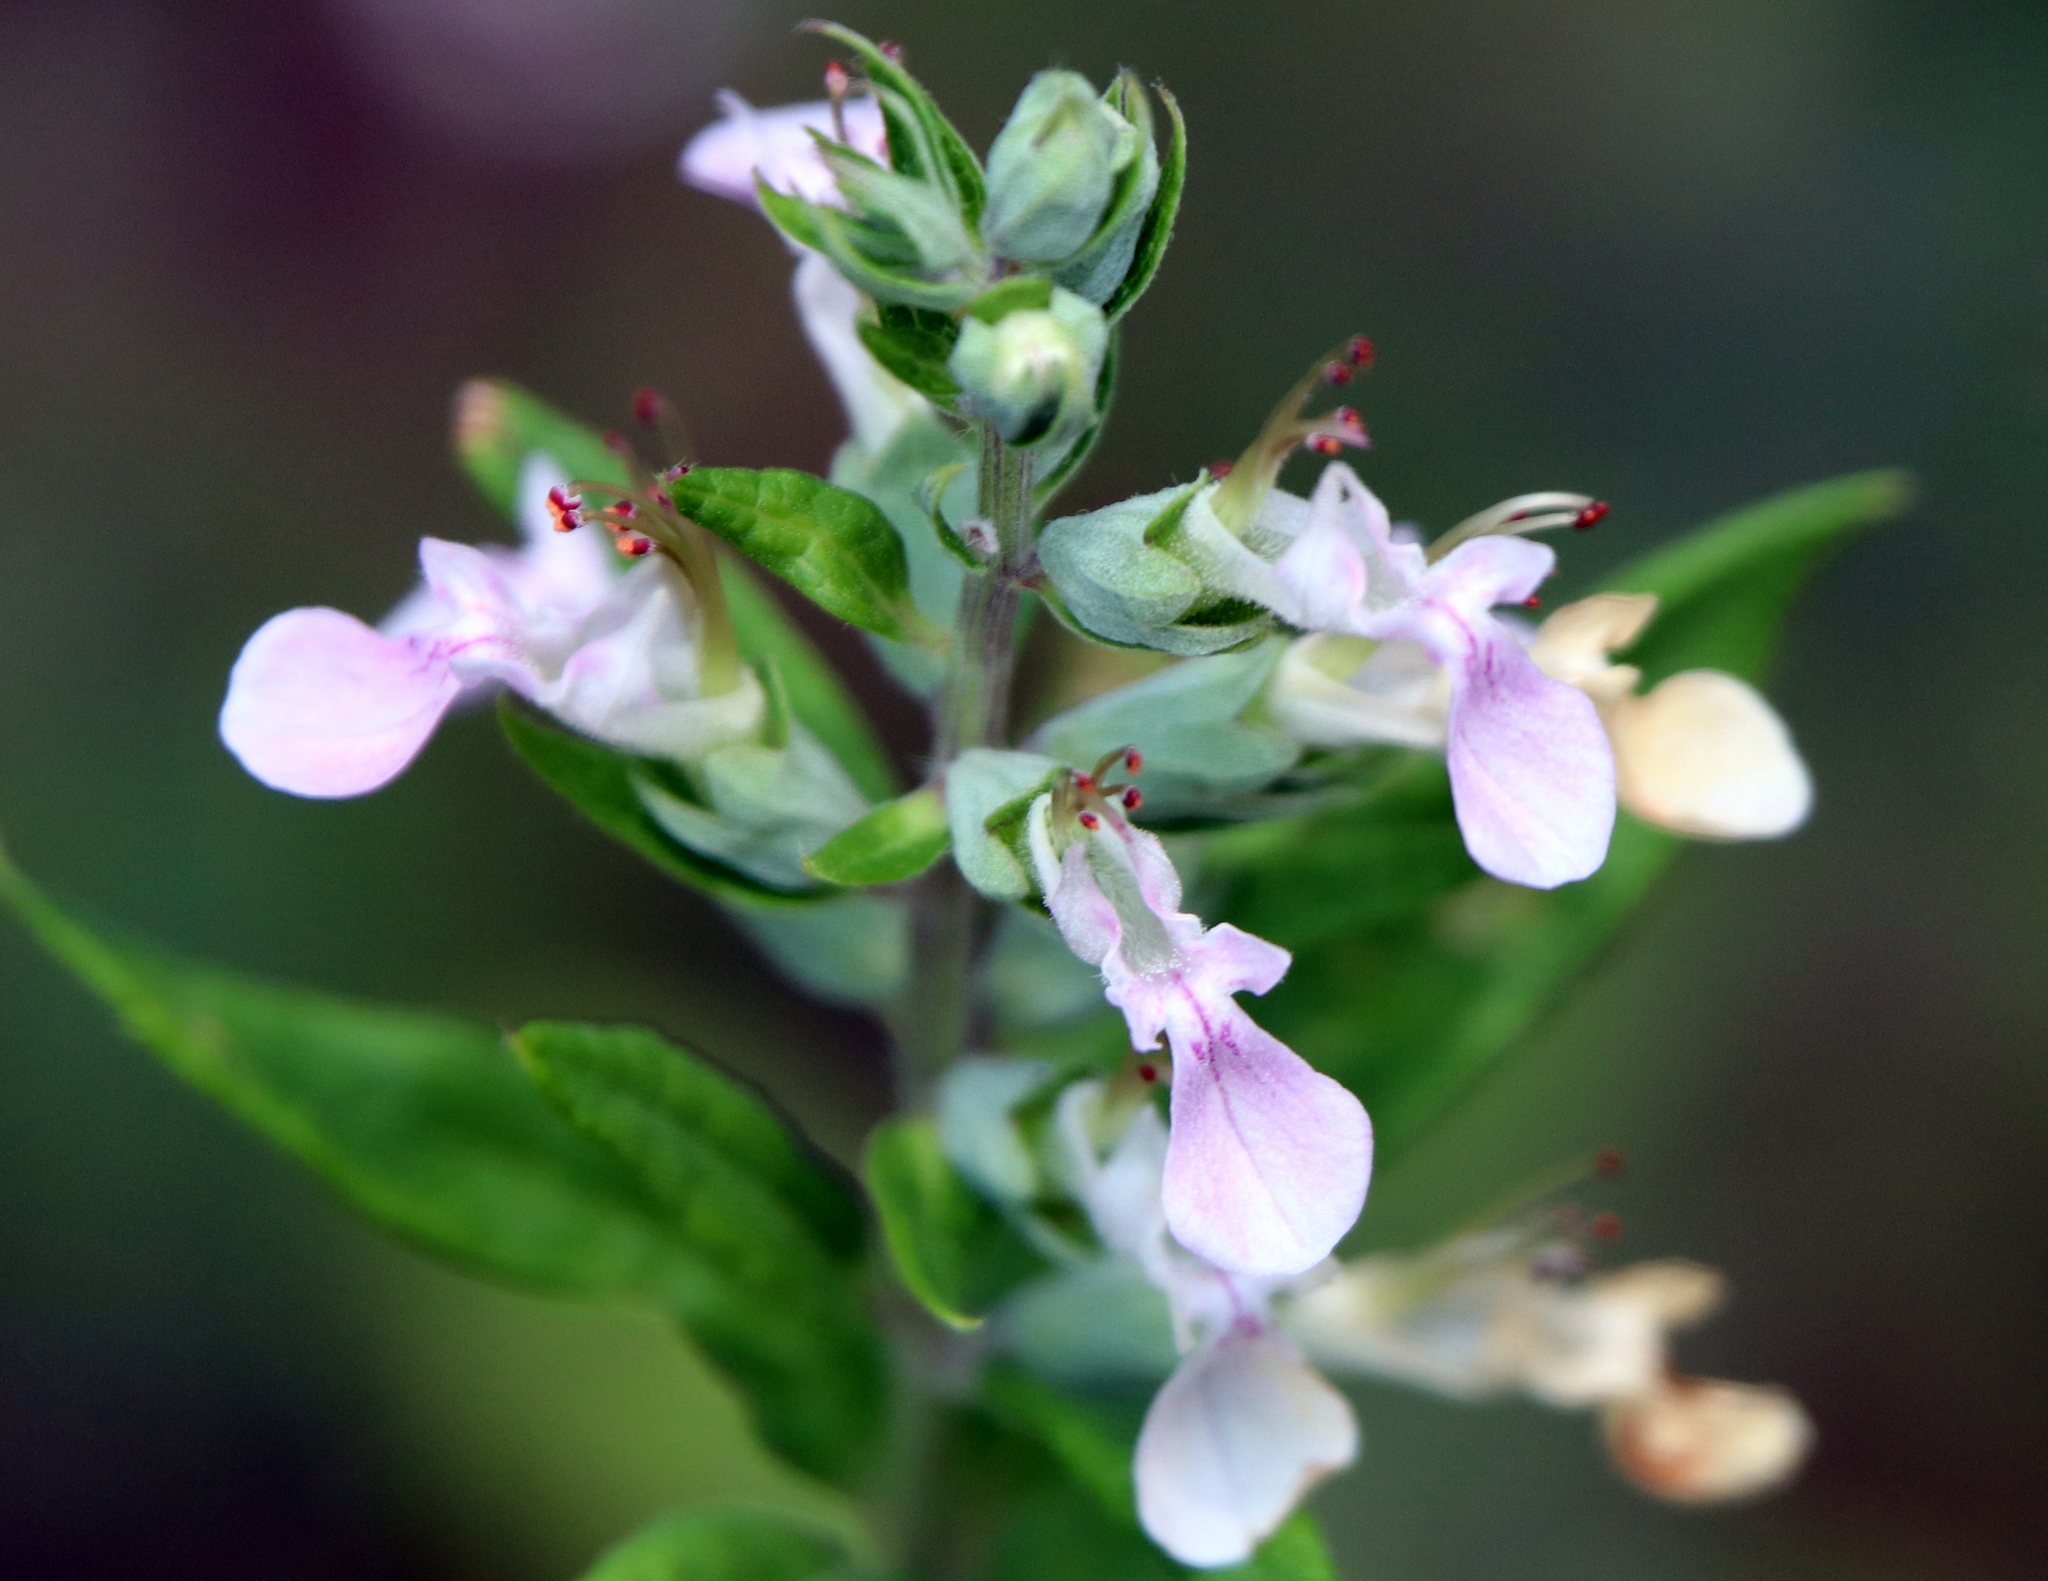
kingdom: Plantae
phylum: Tracheophyta
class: Magnoliopsida
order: Lamiales
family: Lamiaceae
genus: Teucrium
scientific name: Teucrium canadense
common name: American germander
